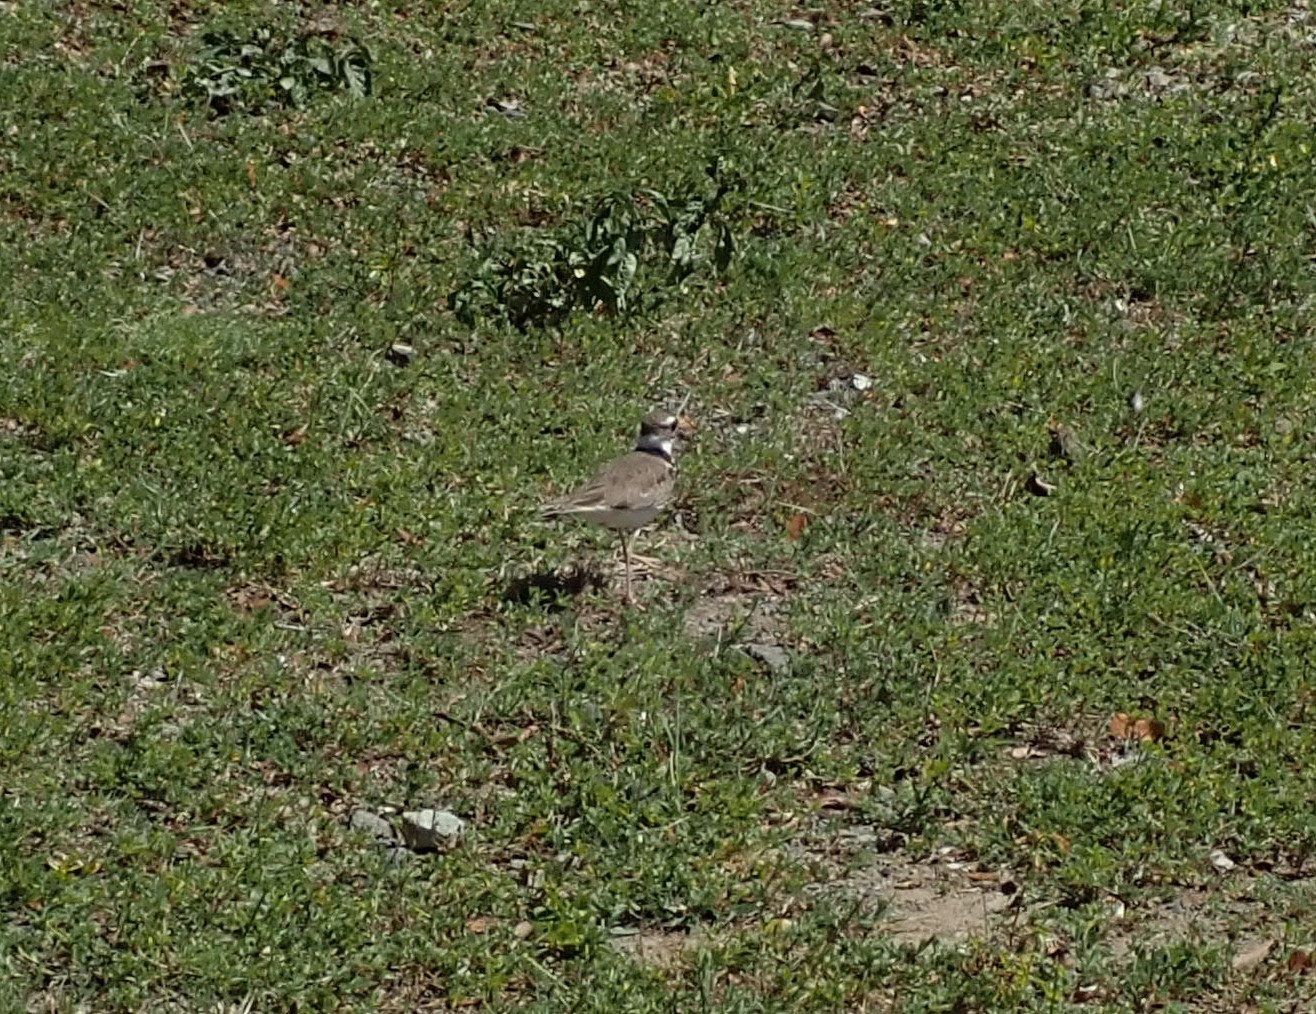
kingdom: Animalia
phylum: Chordata
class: Aves
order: Charadriiformes
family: Charadriidae
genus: Charadrius
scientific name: Charadrius vociferus
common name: Killdeer
